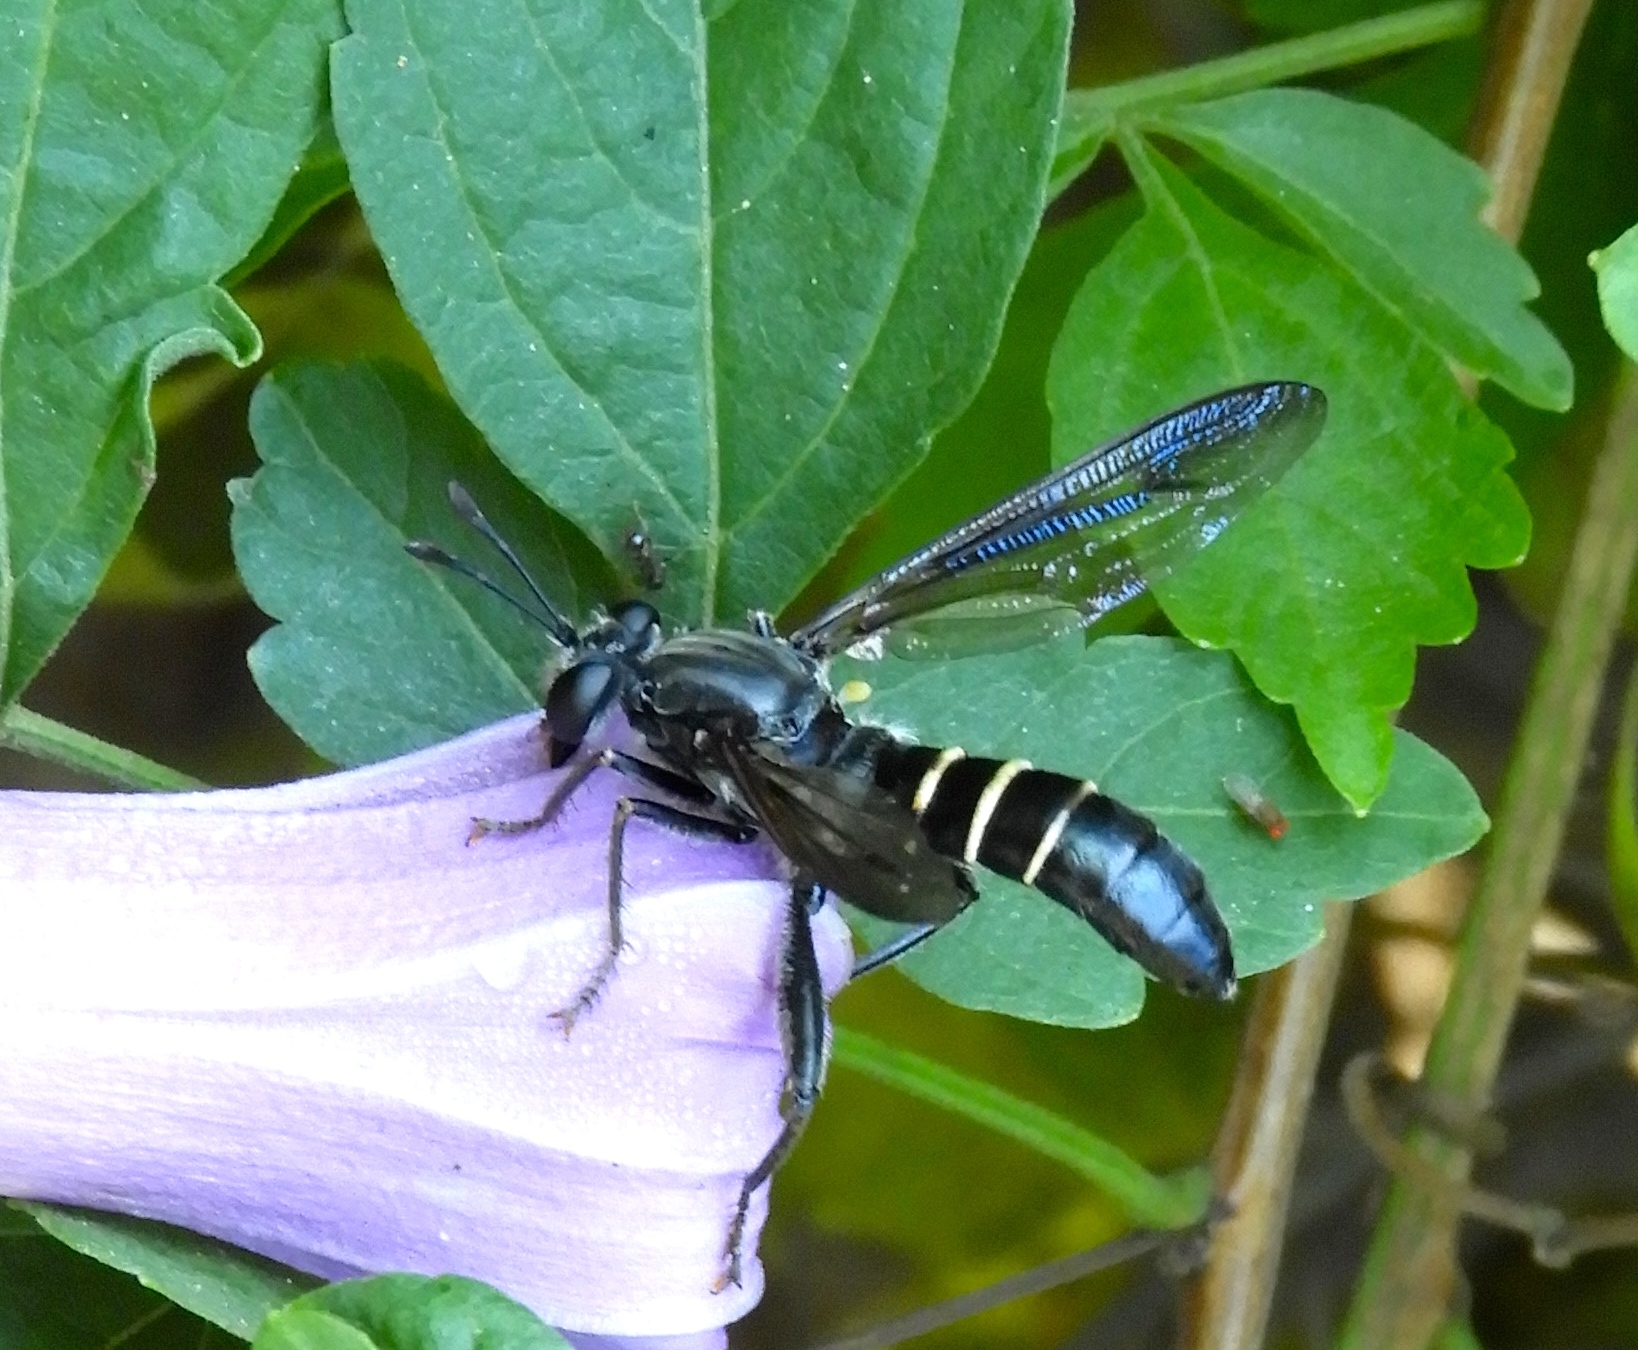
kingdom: Animalia
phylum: Arthropoda
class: Insecta
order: Diptera
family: Mydidae
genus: Mydas
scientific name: Mydas
